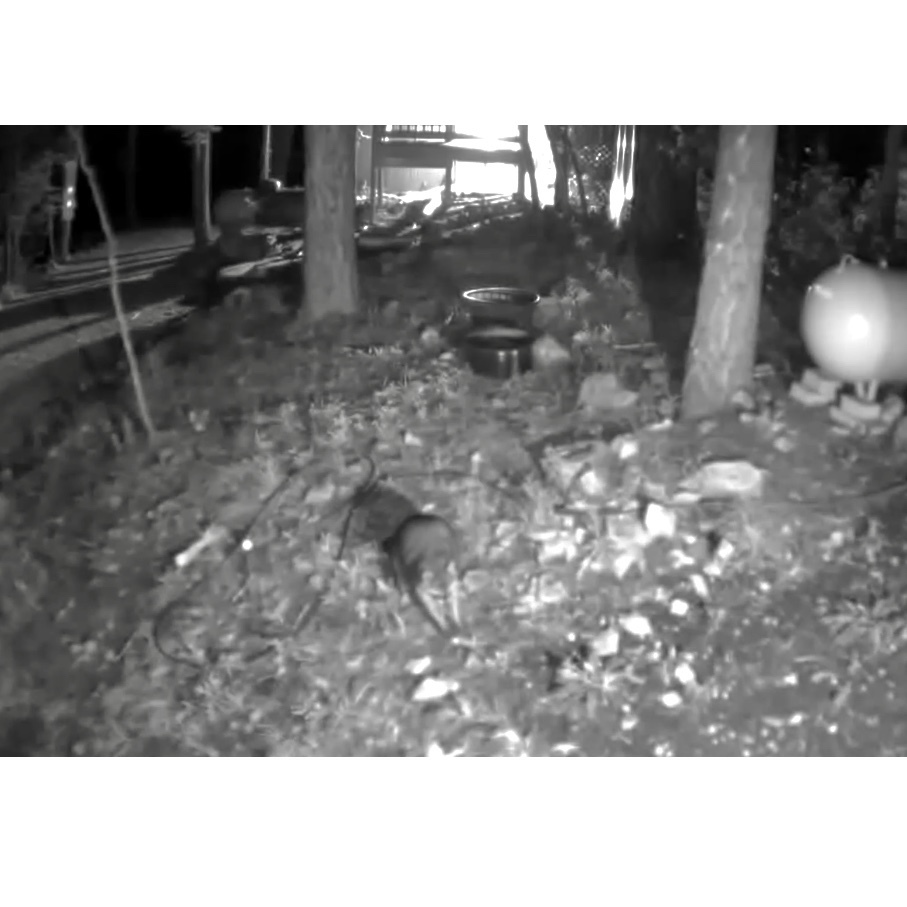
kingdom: Animalia
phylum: Chordata
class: Mammalia
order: Carnivora
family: Procyonidae
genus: Procyon
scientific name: Procyon lotor
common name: Raccoon
